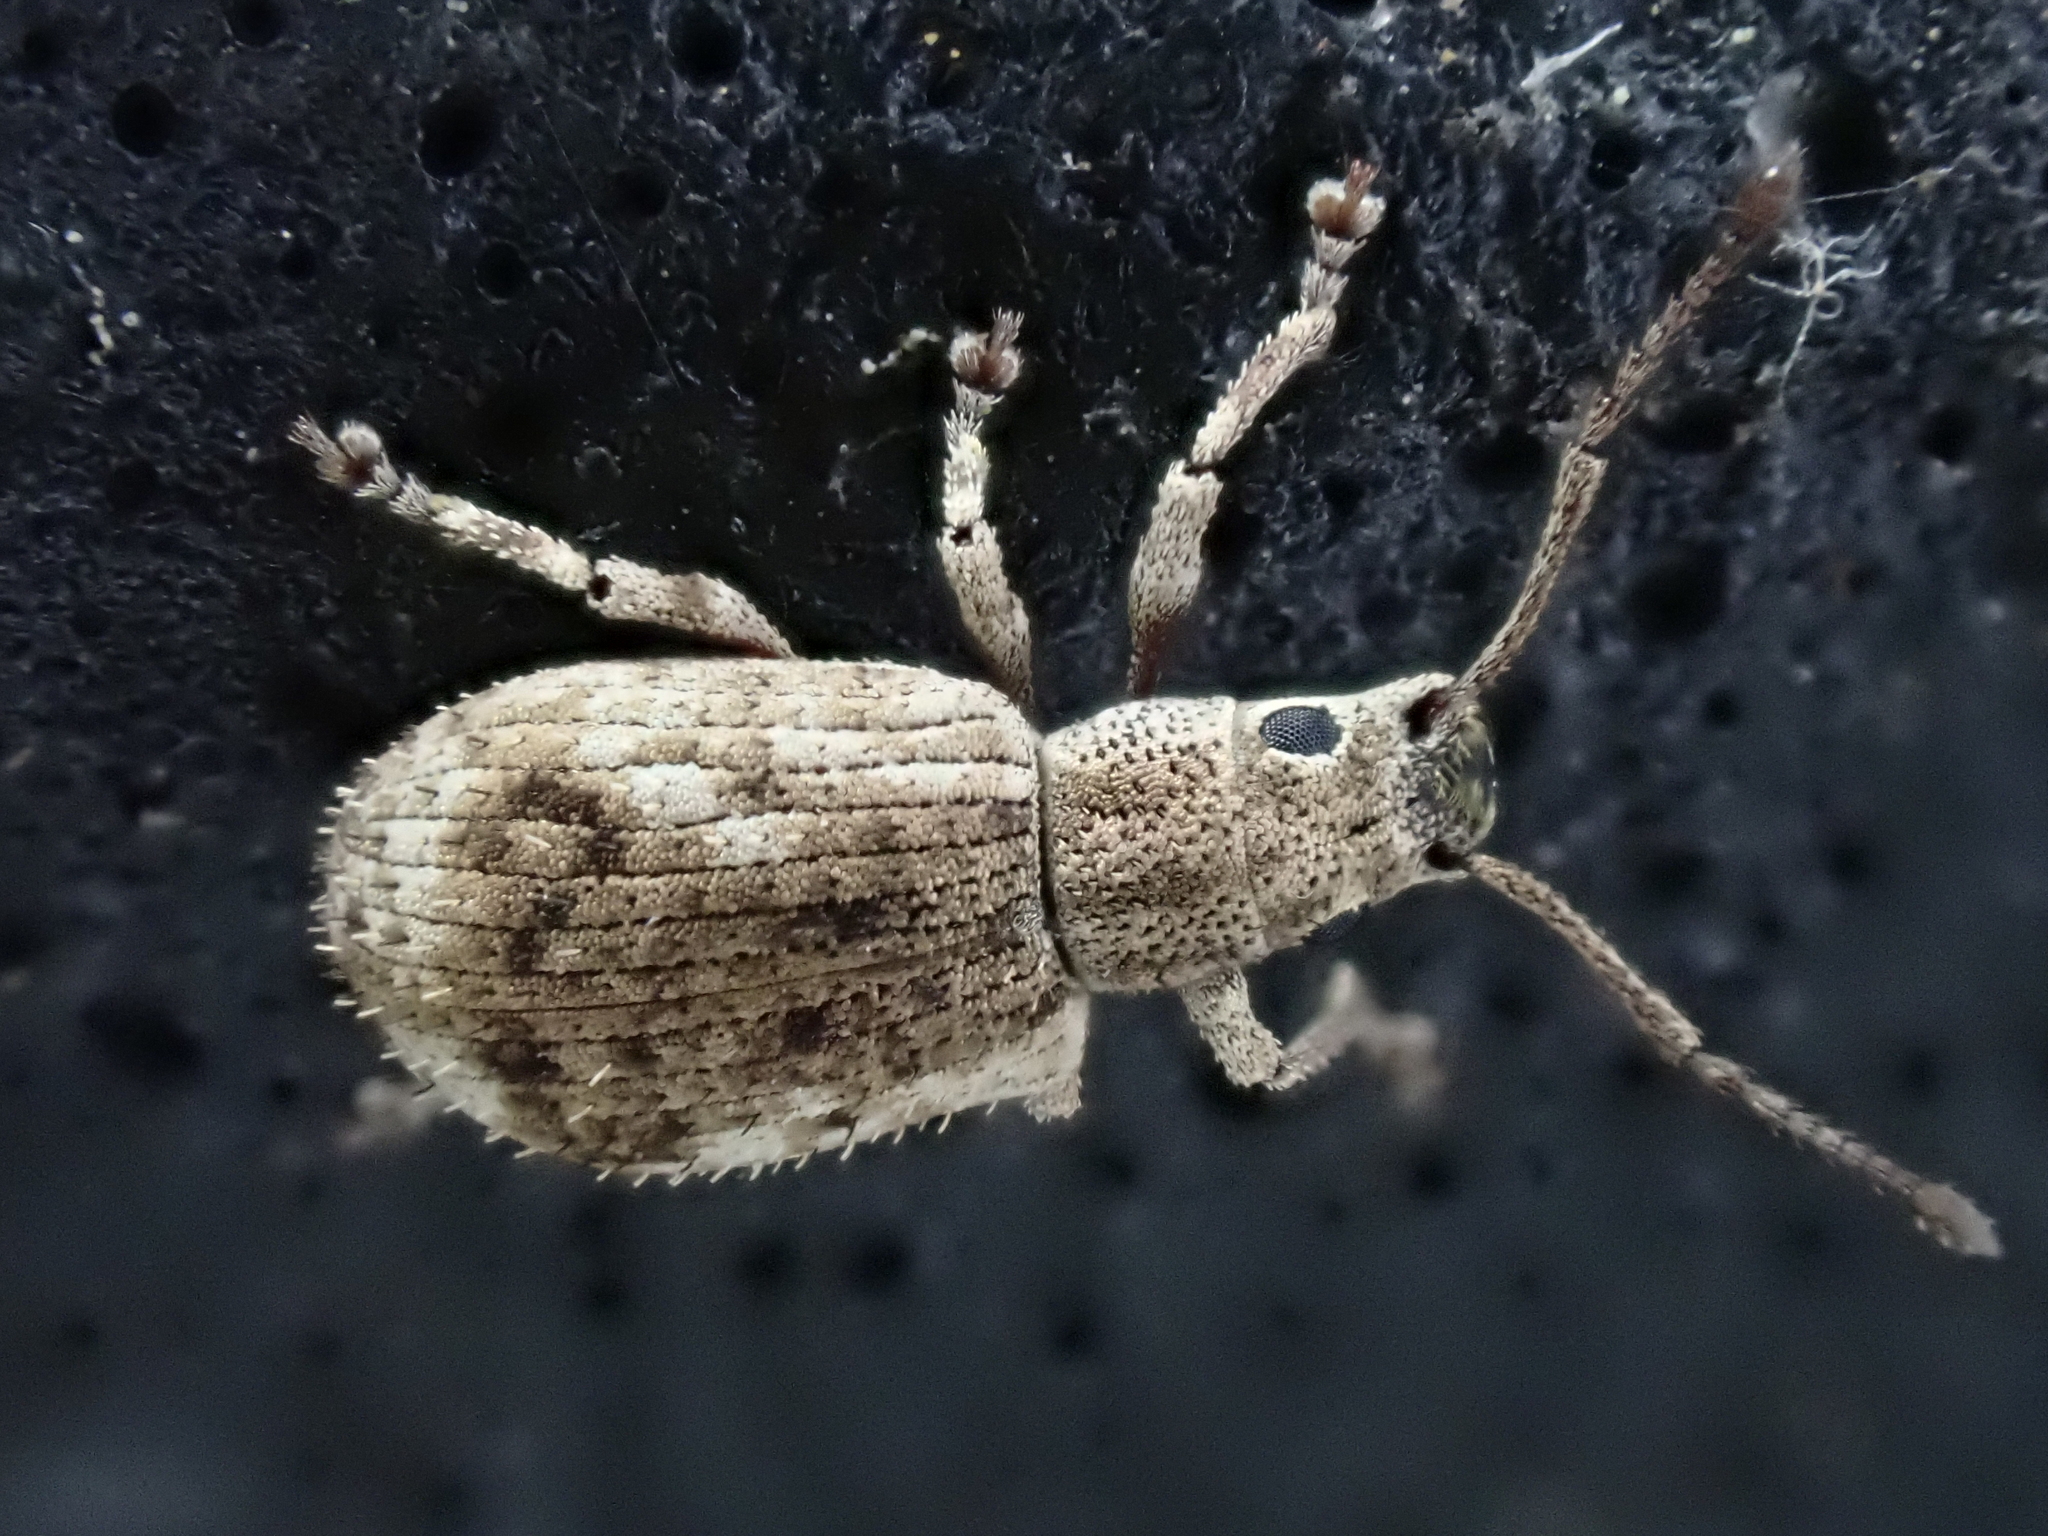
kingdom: Animalia
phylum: Arthropoda
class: Insecta
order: Coleoptera
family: Curculionidae
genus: Pseudoedophrys
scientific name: Pseudoedophrys hilleri
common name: Weevil
